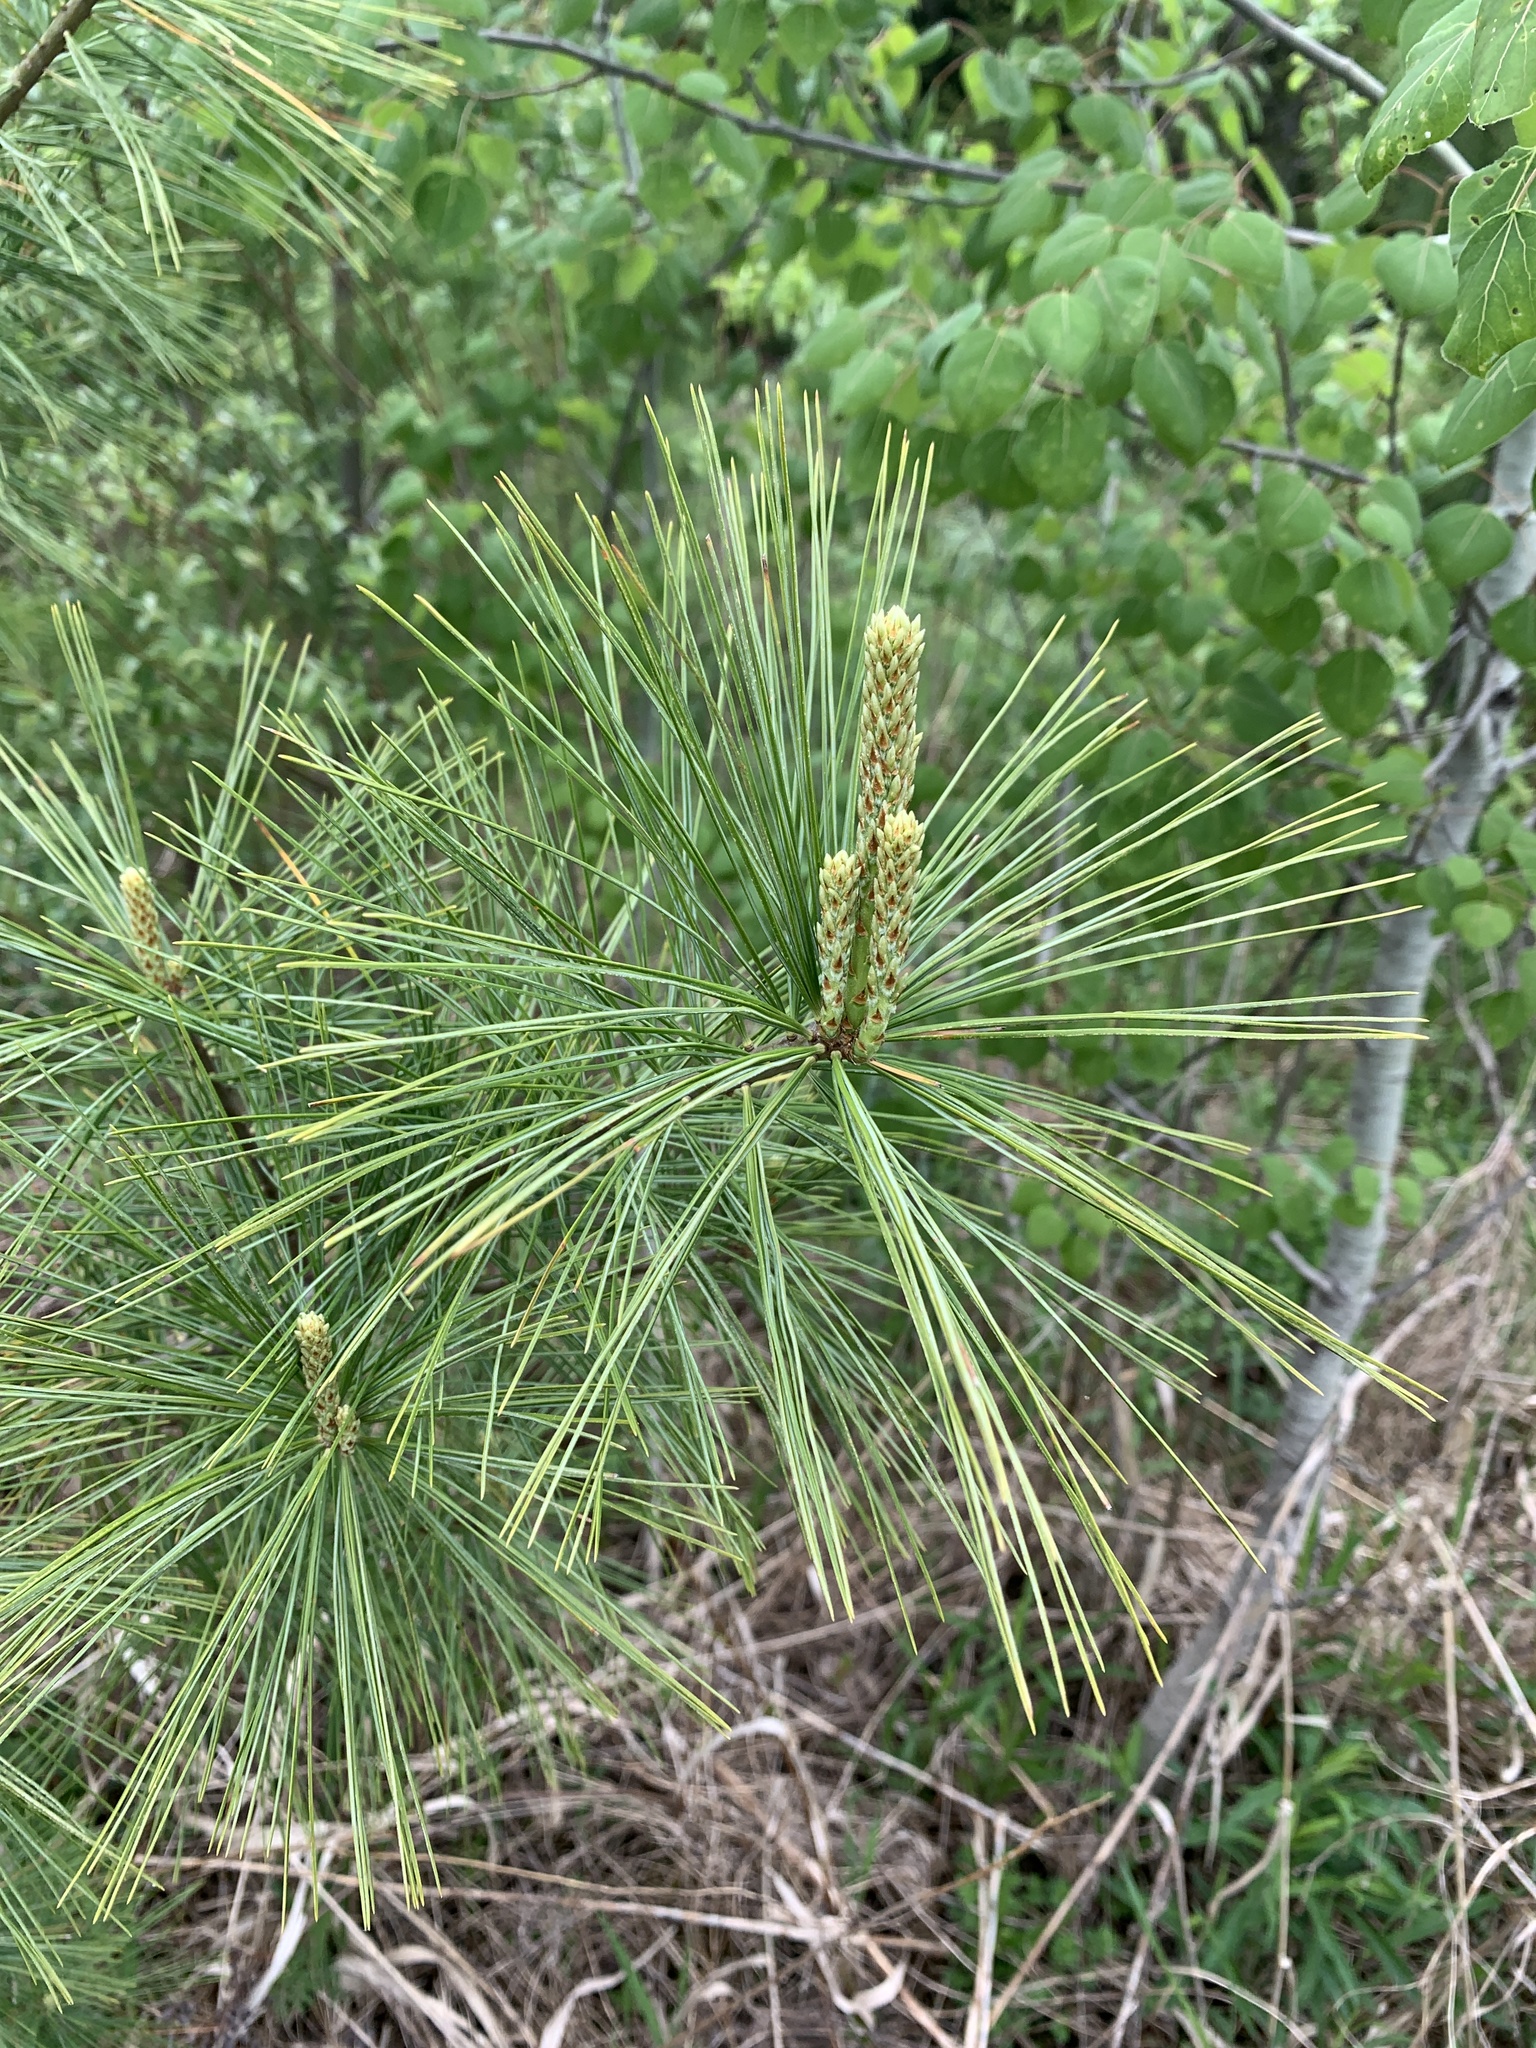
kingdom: Plantae
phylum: Tracheophyta
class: Pinopsida
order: Pinales
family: Pinaceae
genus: Pinus
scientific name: Pinus strobus
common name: Weymouth pine
